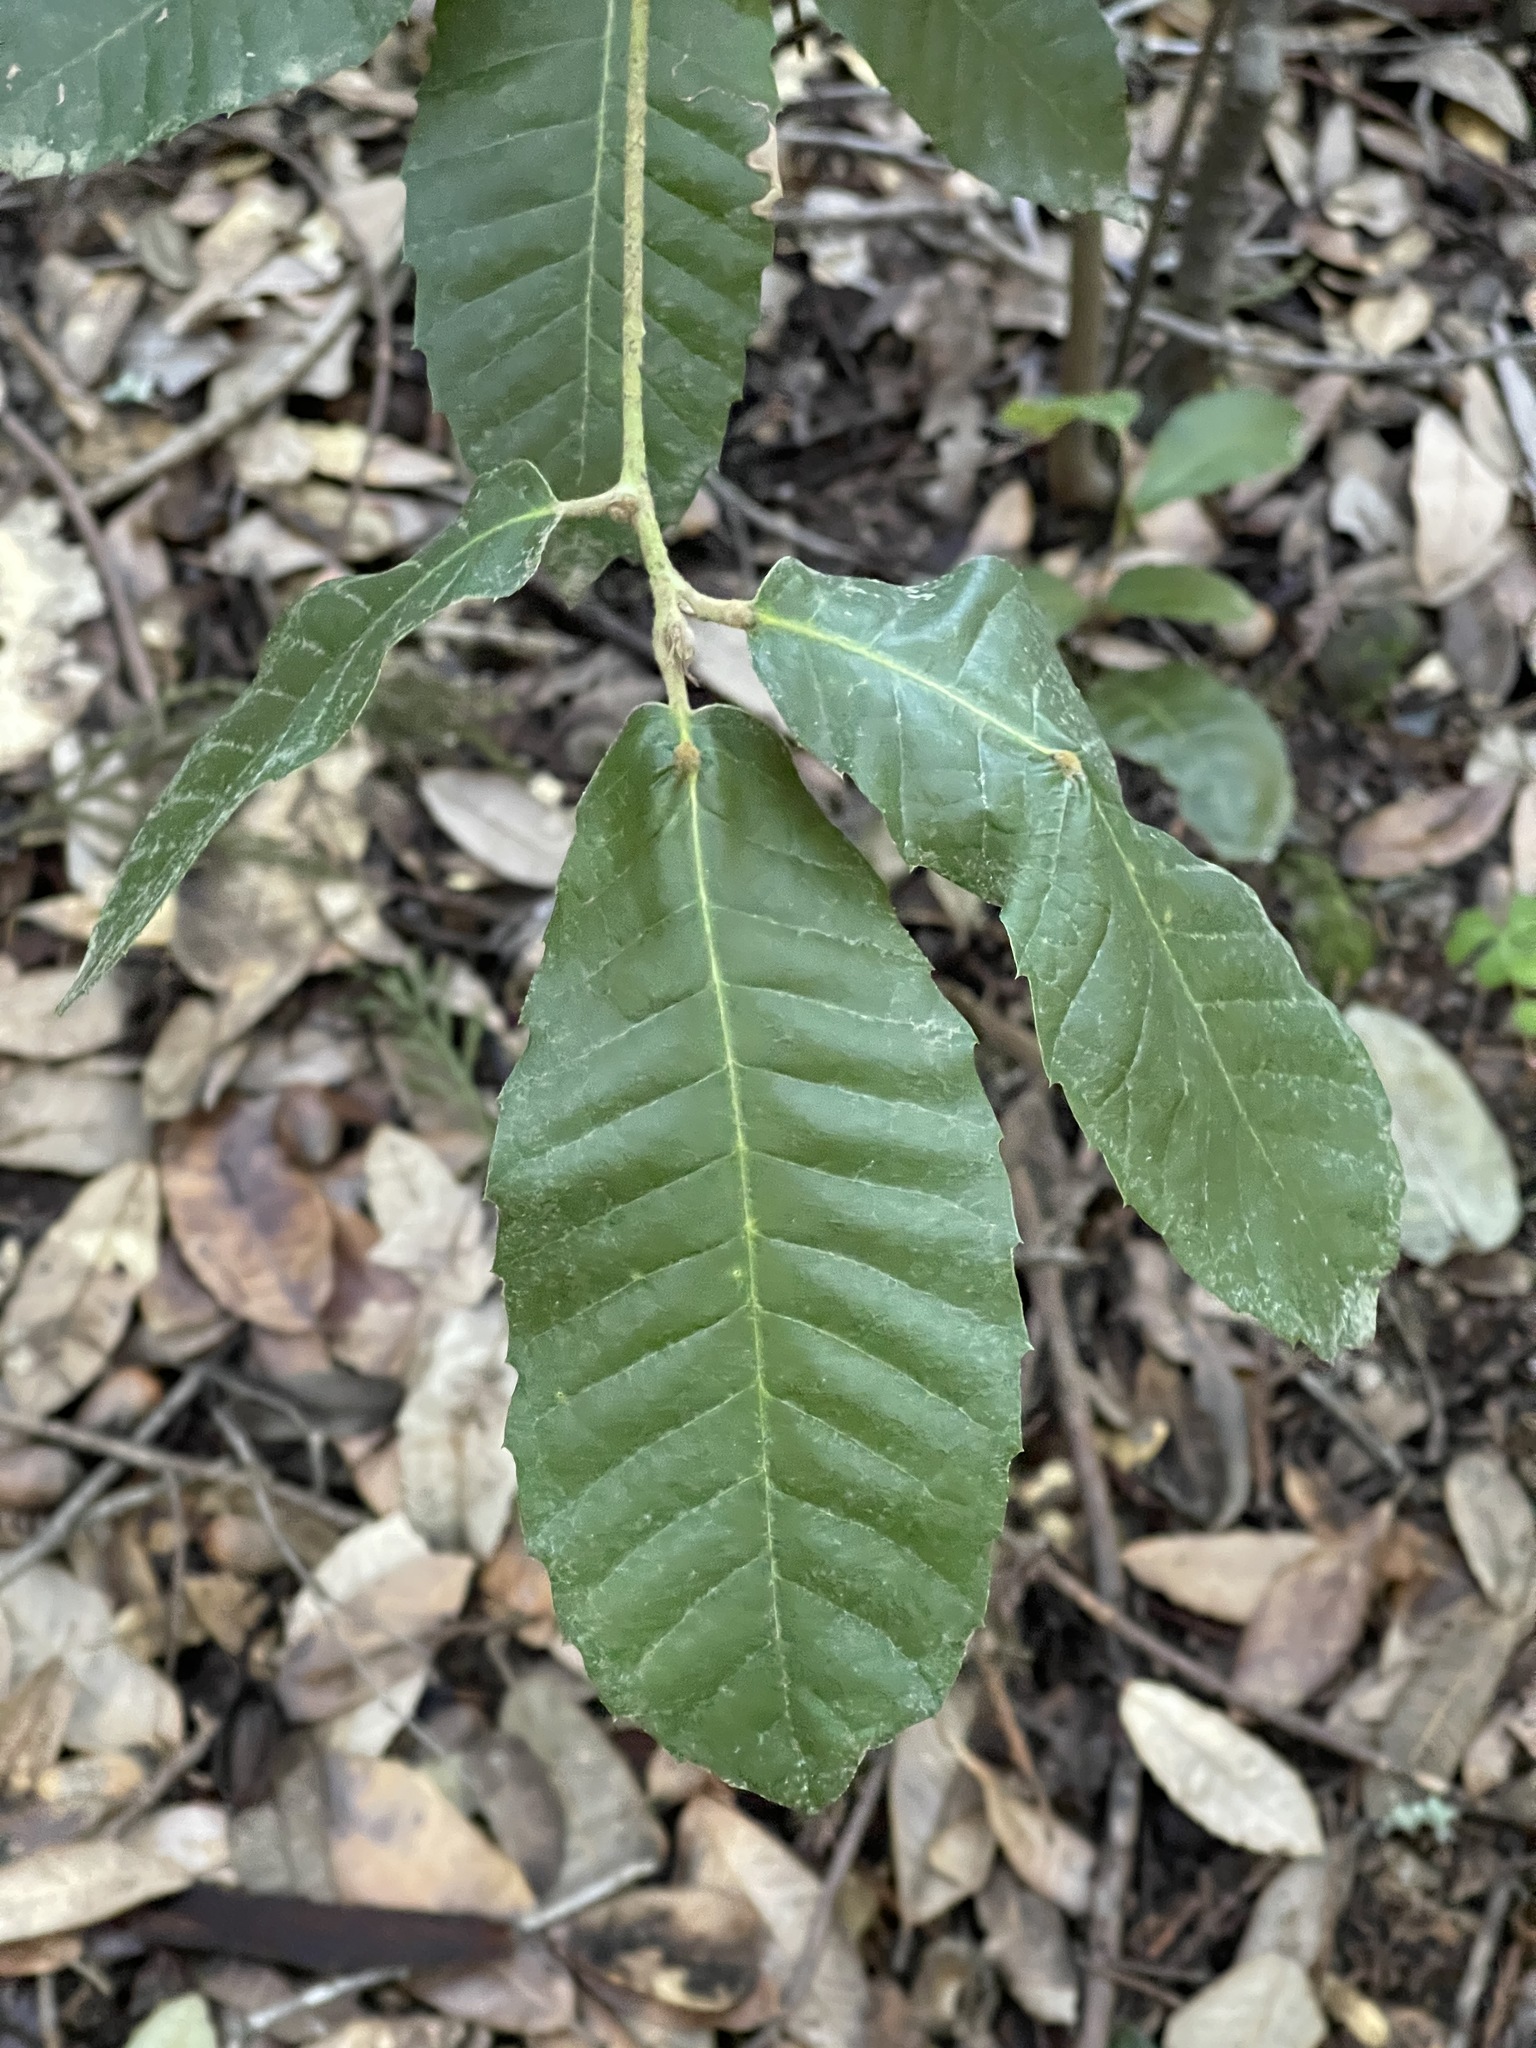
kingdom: Plantae
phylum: Tracheophyta
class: Magnoliopsida
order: Fagales
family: Fagaceae
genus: Notholithocarpus
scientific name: Notholithocarpus densiflorus
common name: Tan bark oak
